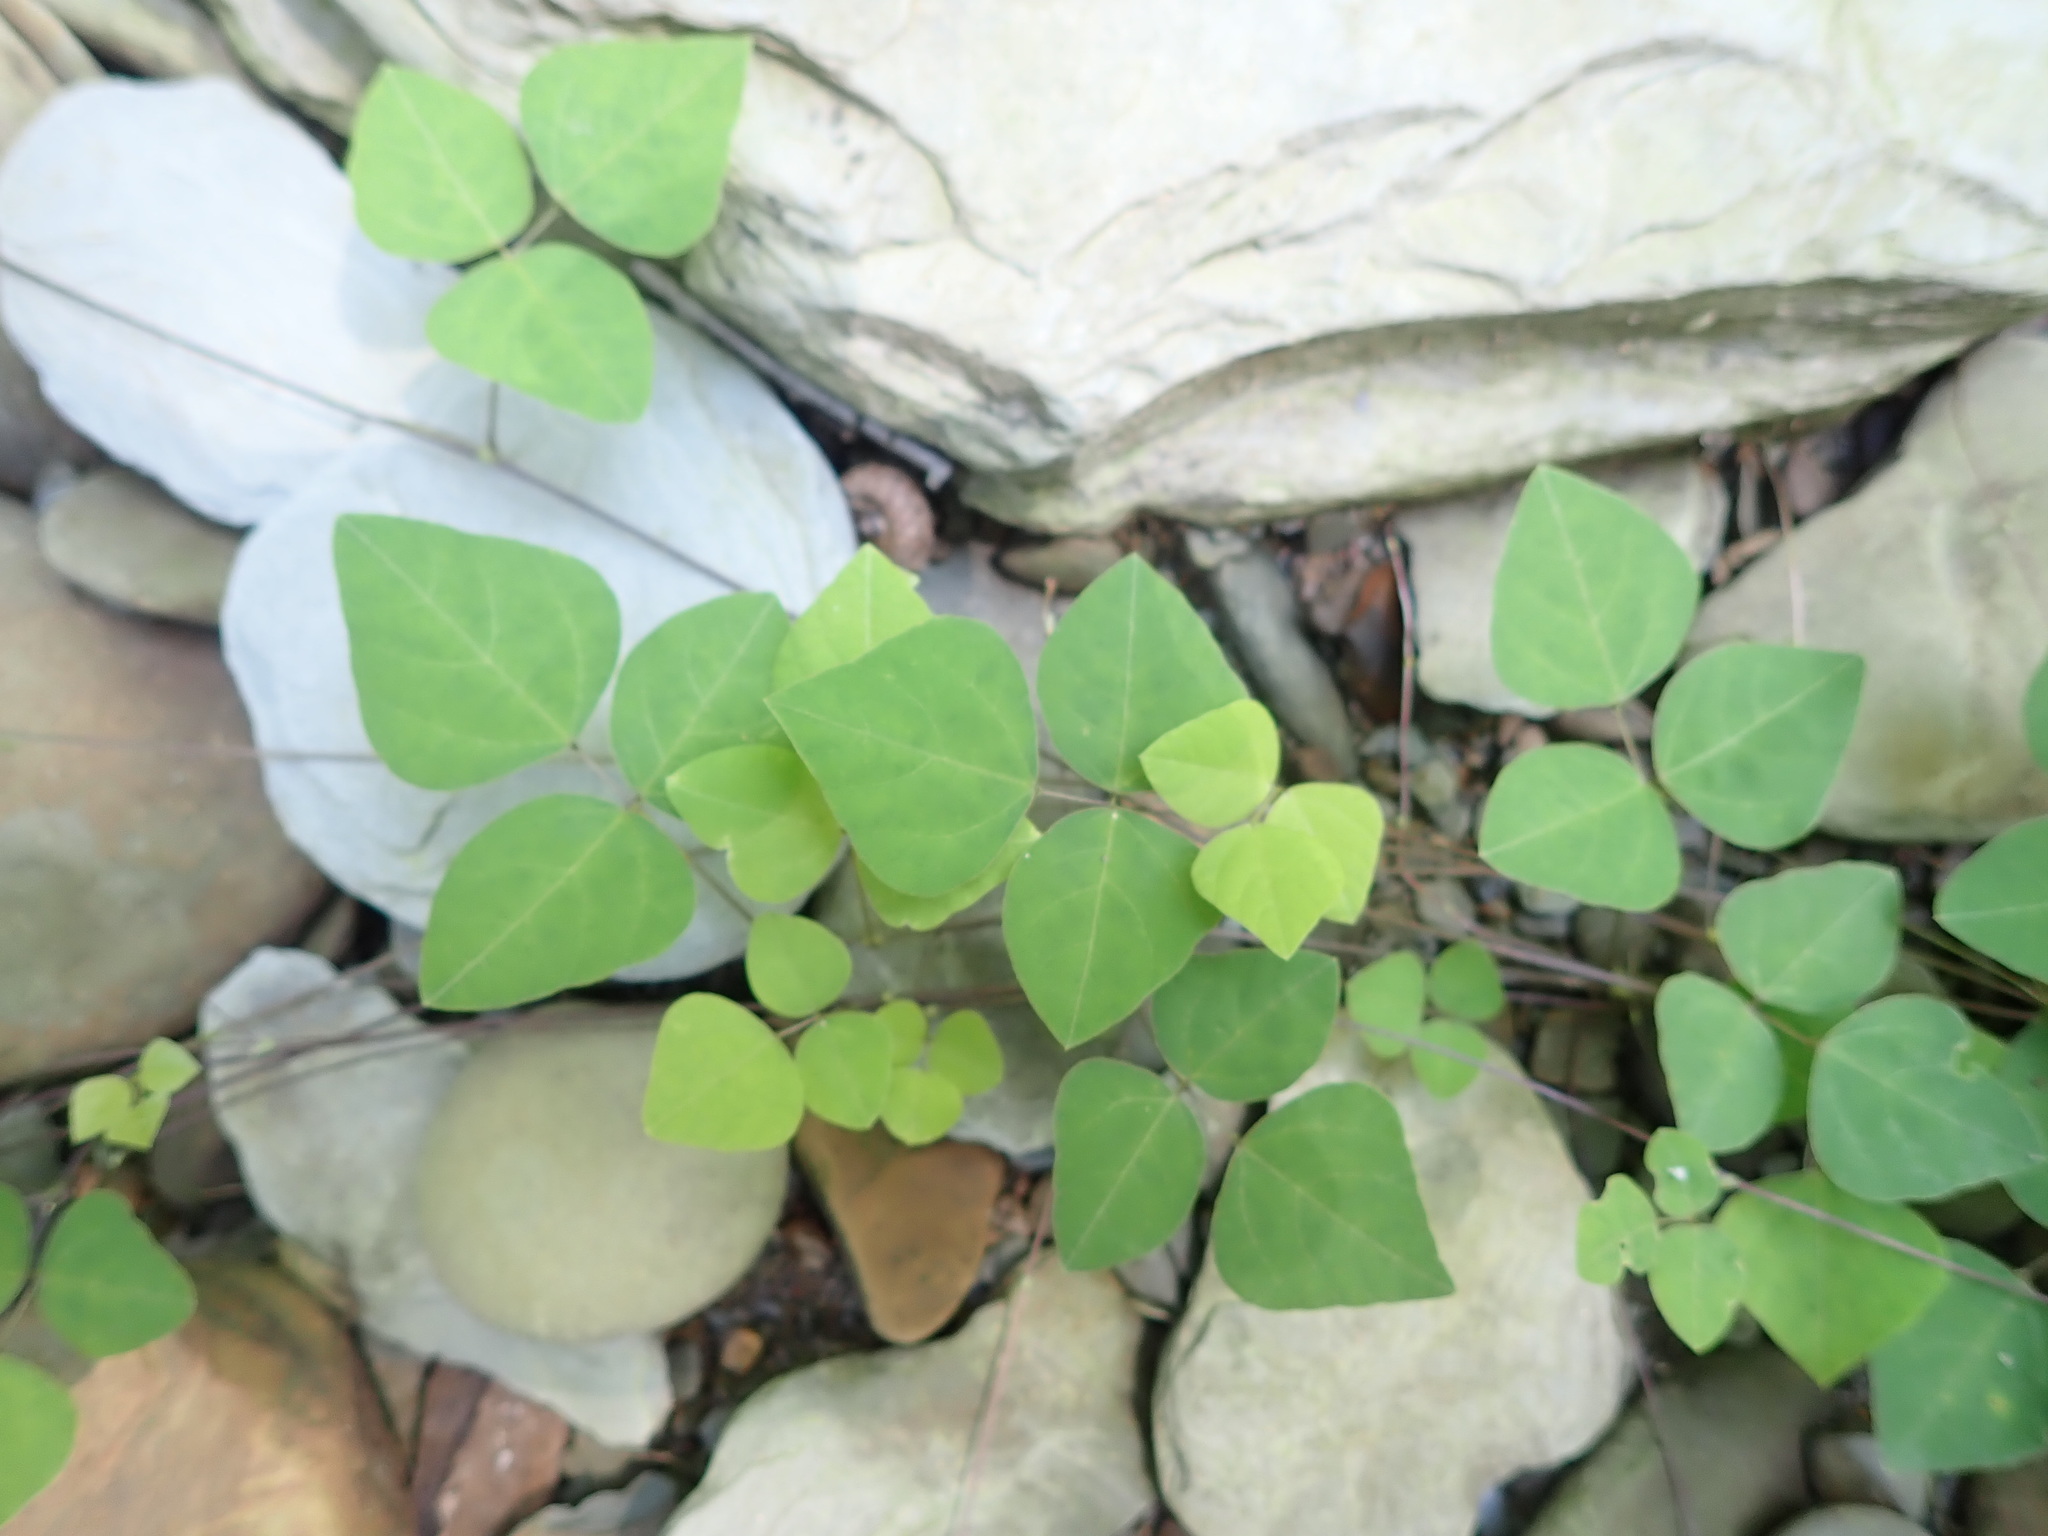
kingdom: Plantae
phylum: Tracheophyta
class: Magnoliopsida
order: Fabales
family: Fabaceae
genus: Amphicarpaea
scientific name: Amphicarpaea bracteata
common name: American hog peanut
